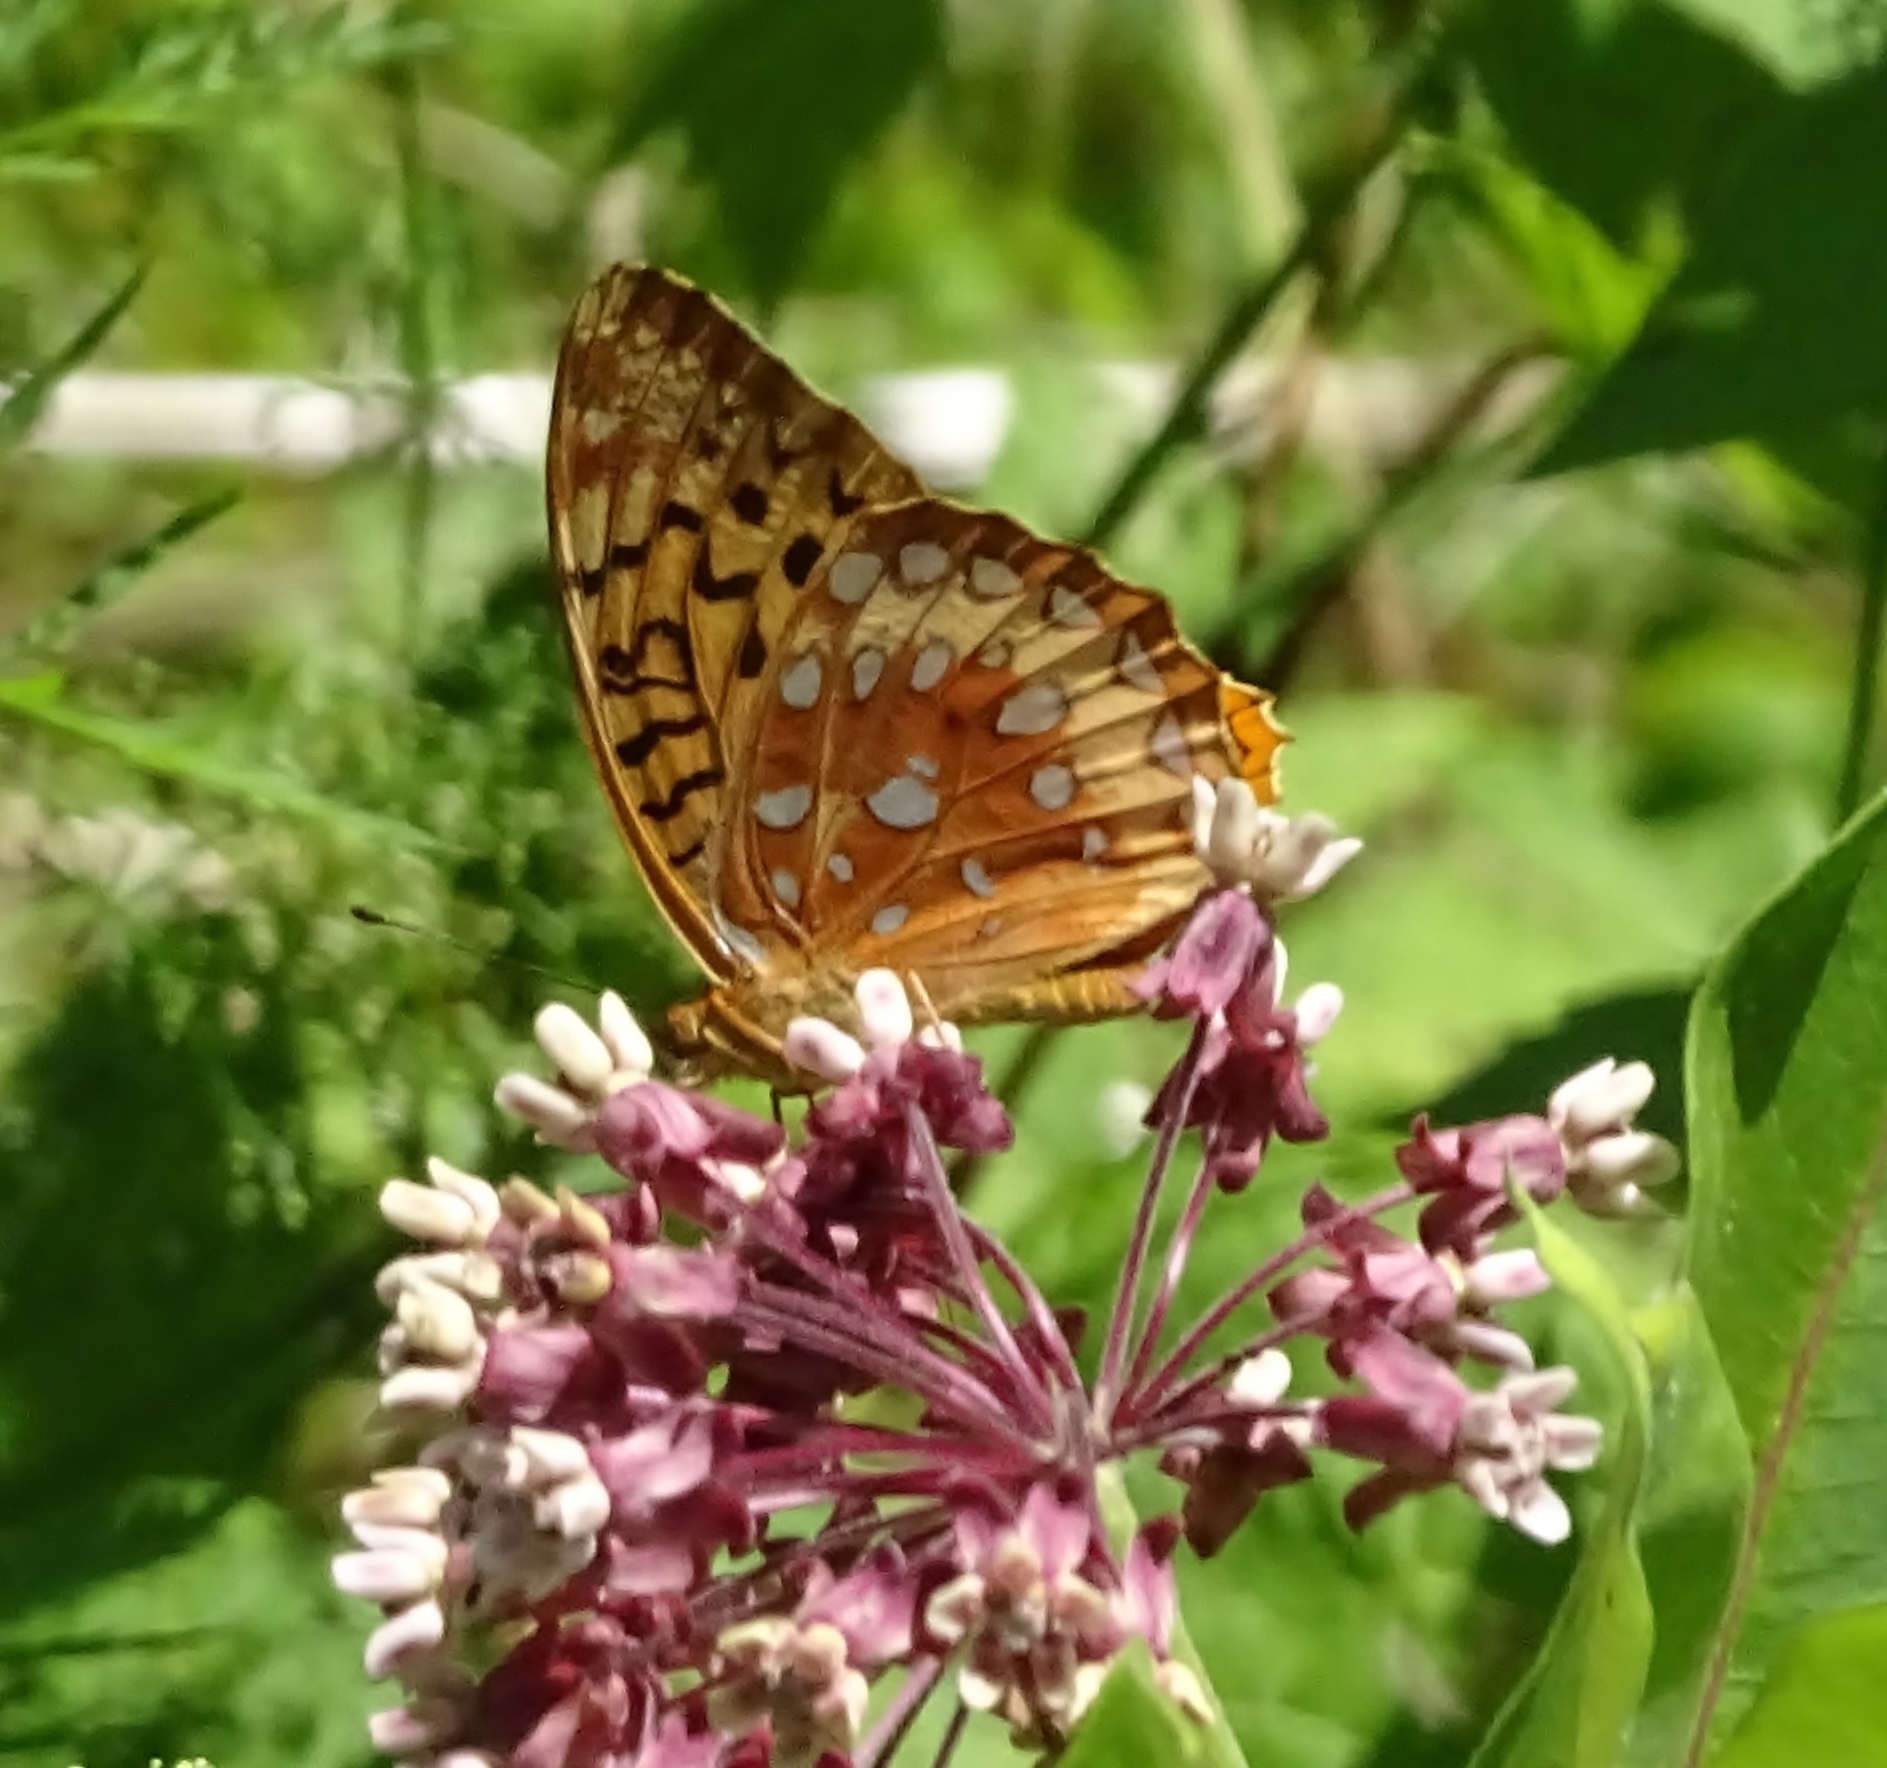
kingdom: Animalia
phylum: Arthropoda
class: Insecta
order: Lepidoptera
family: Nymphalidae
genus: Speyeria
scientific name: Speyeria cybele
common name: Great spangled fritillary
